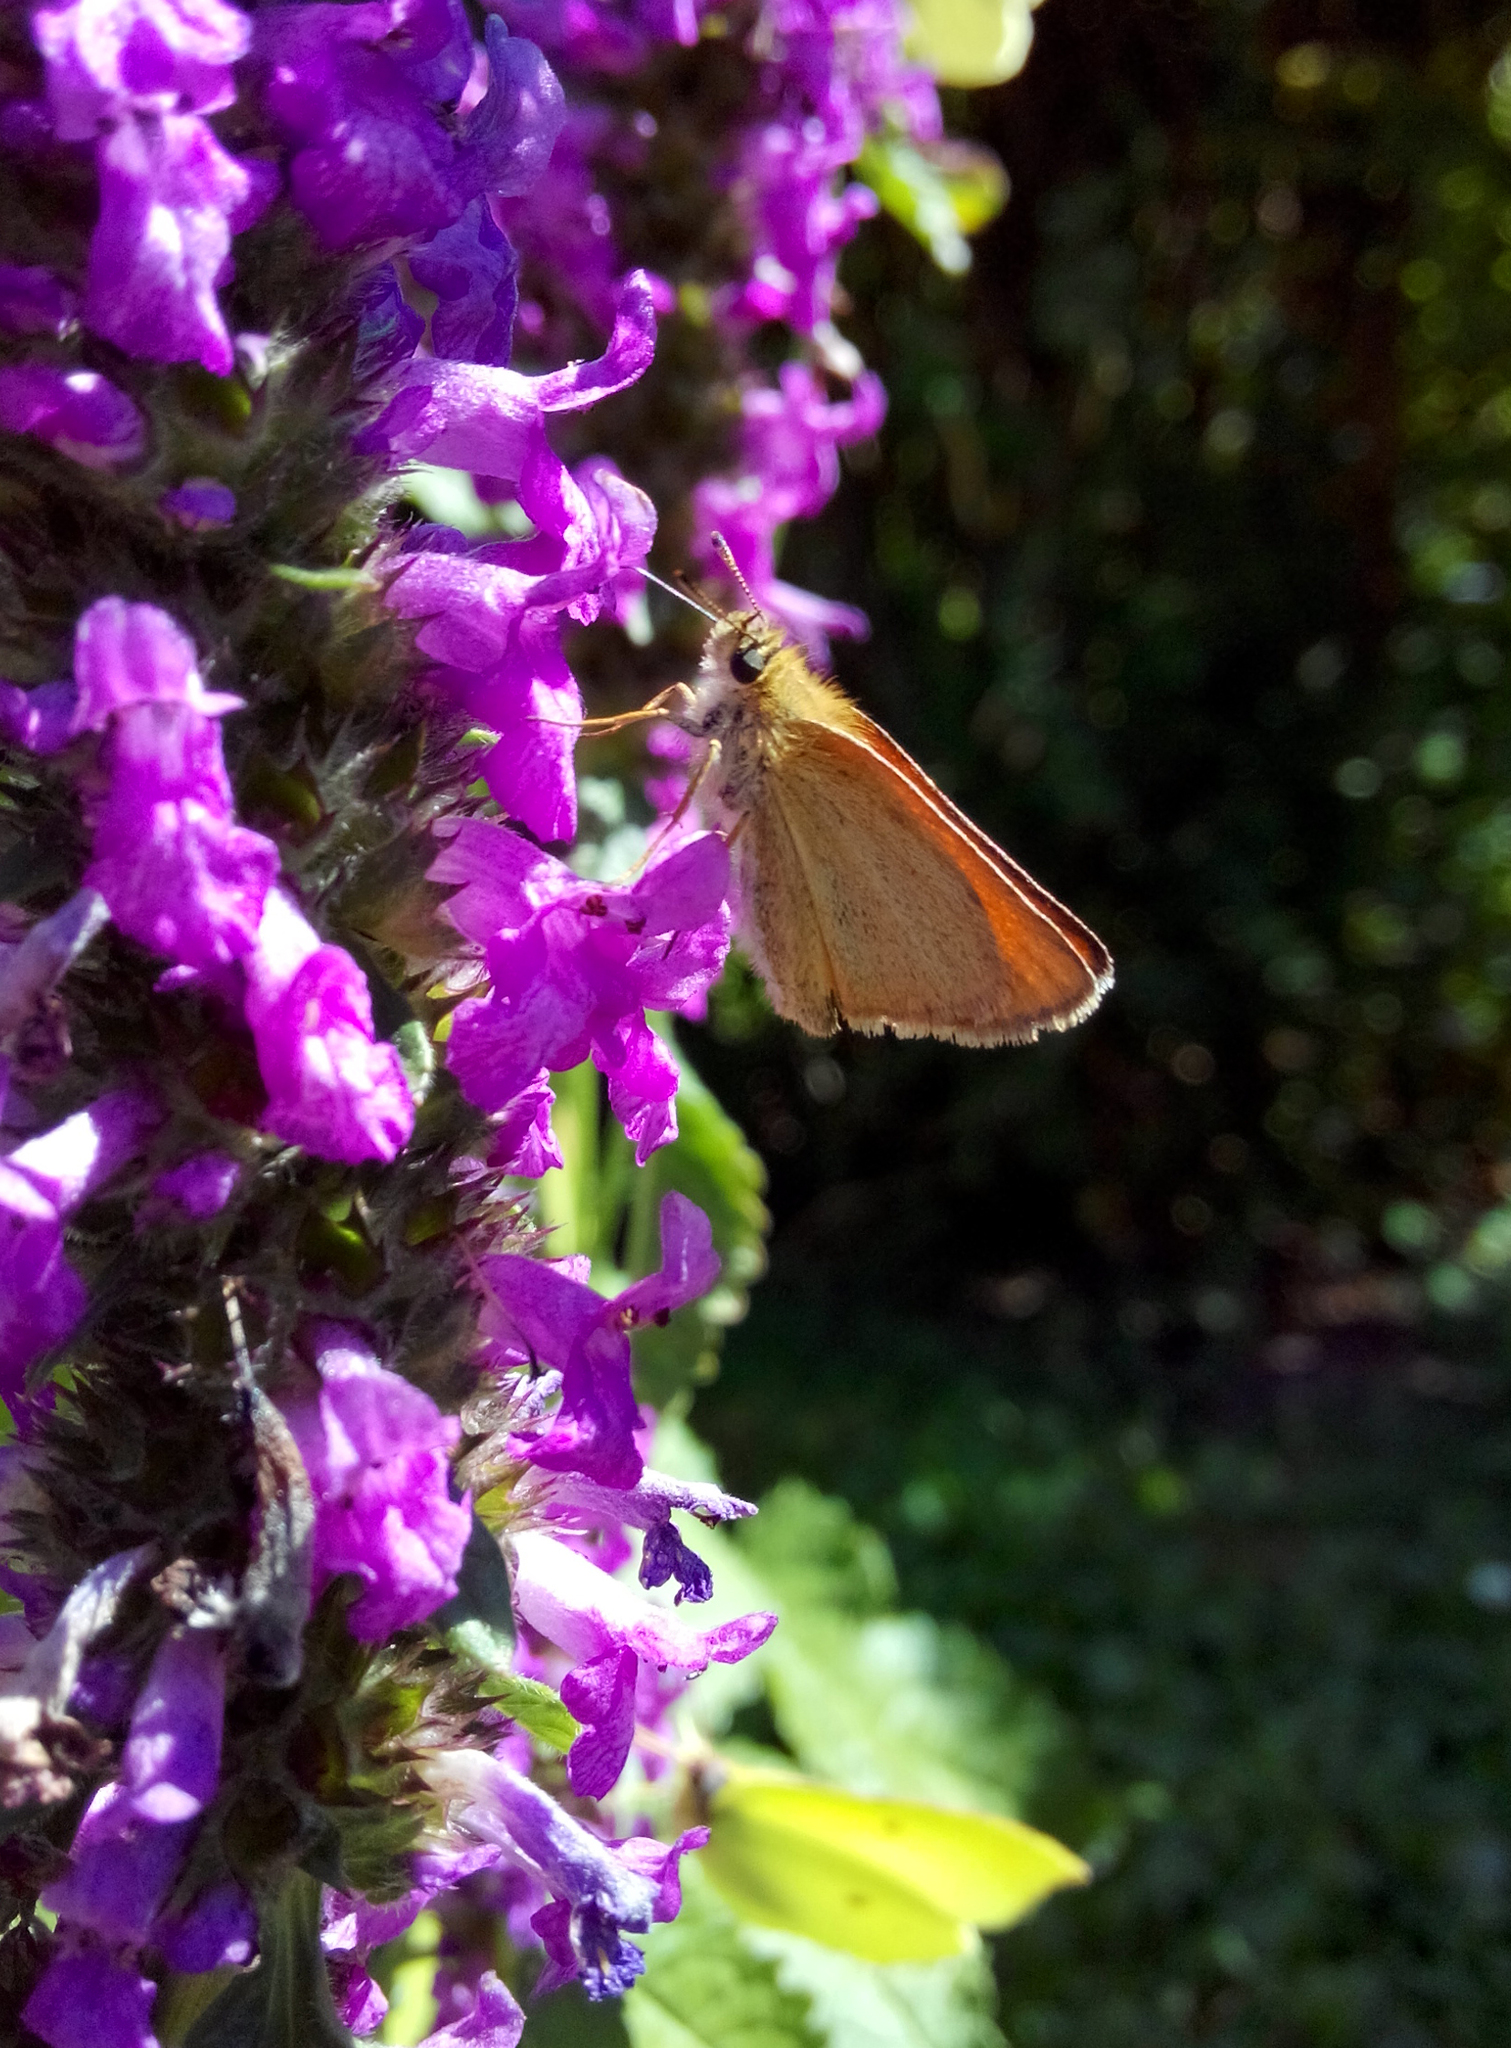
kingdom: Animalia
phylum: Arthropoda
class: Insecta
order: Lepidoptera
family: Hesperiidae
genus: Thymelicus
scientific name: Thymelicus lineola
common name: Essex skipper
